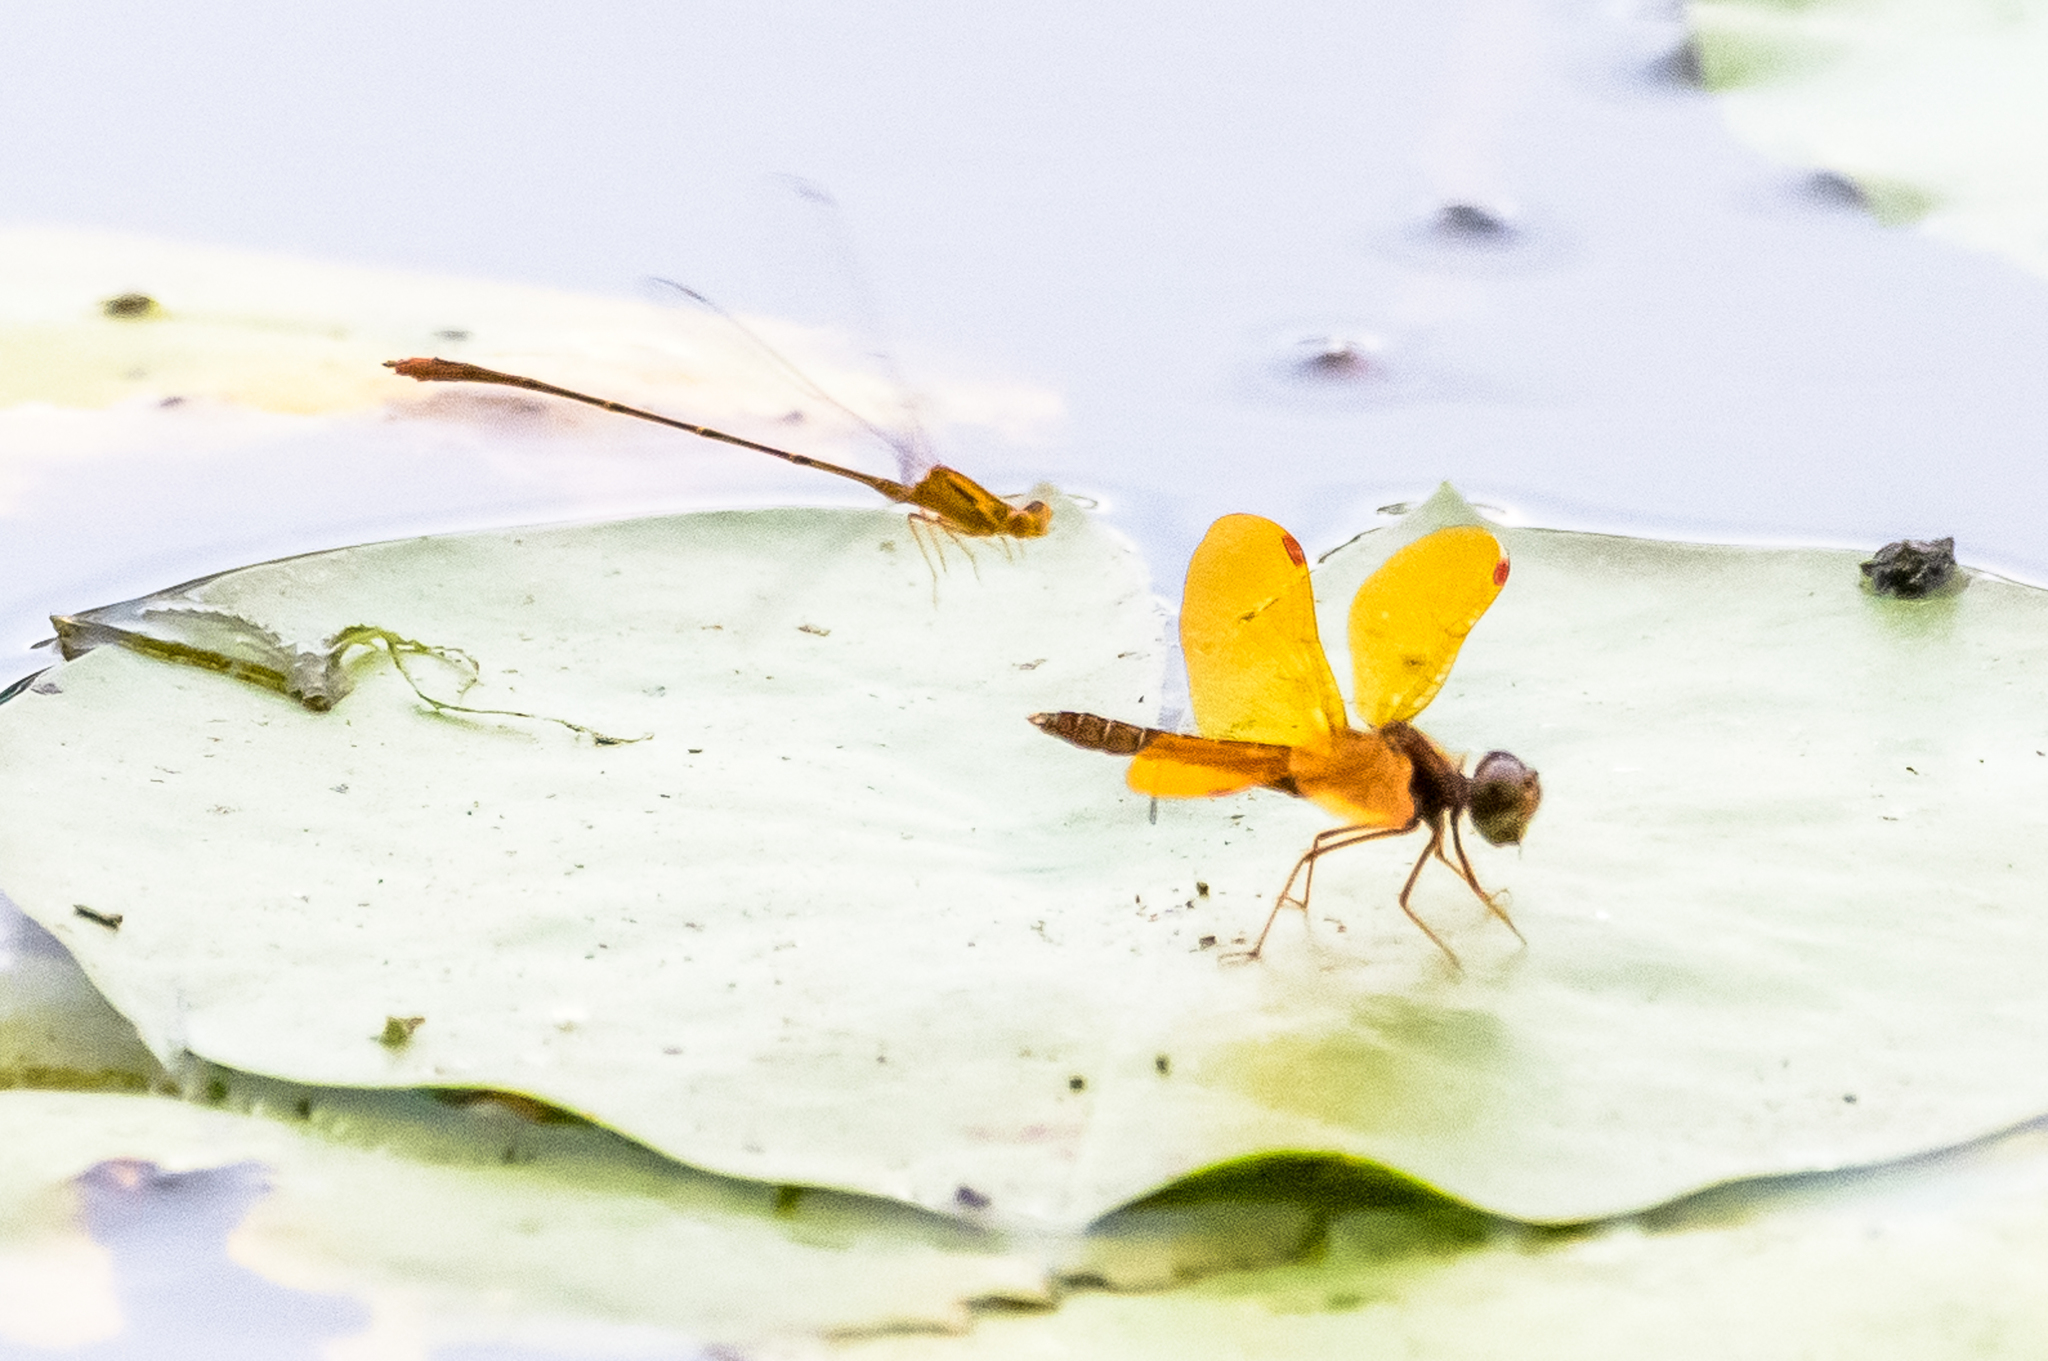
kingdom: Animalia
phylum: Arthropoda
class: Insecta
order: Odonata
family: Libellulidae
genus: Perithemis
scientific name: Perithemis tenera
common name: Eastern amberwing
